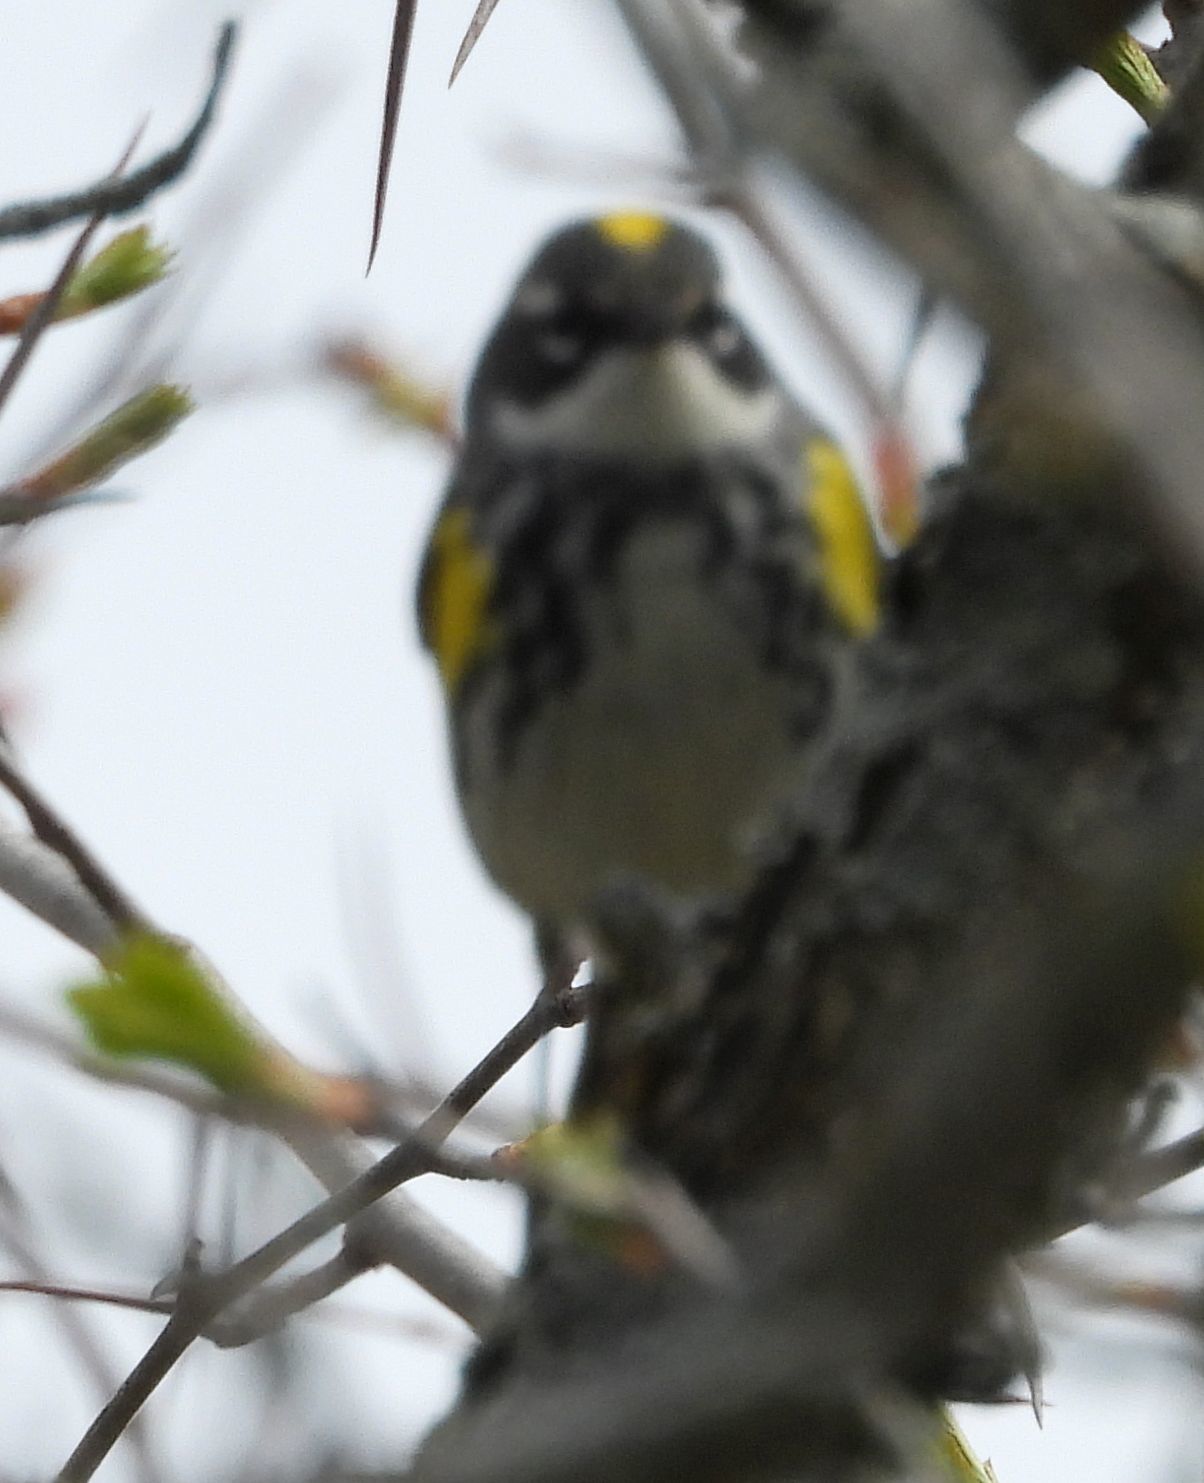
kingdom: Animalia
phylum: Chordata
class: Aves
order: Passeriformes
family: Parulidae
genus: Setophaga
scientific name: Setophaga coronata
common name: Myrtle warbler
